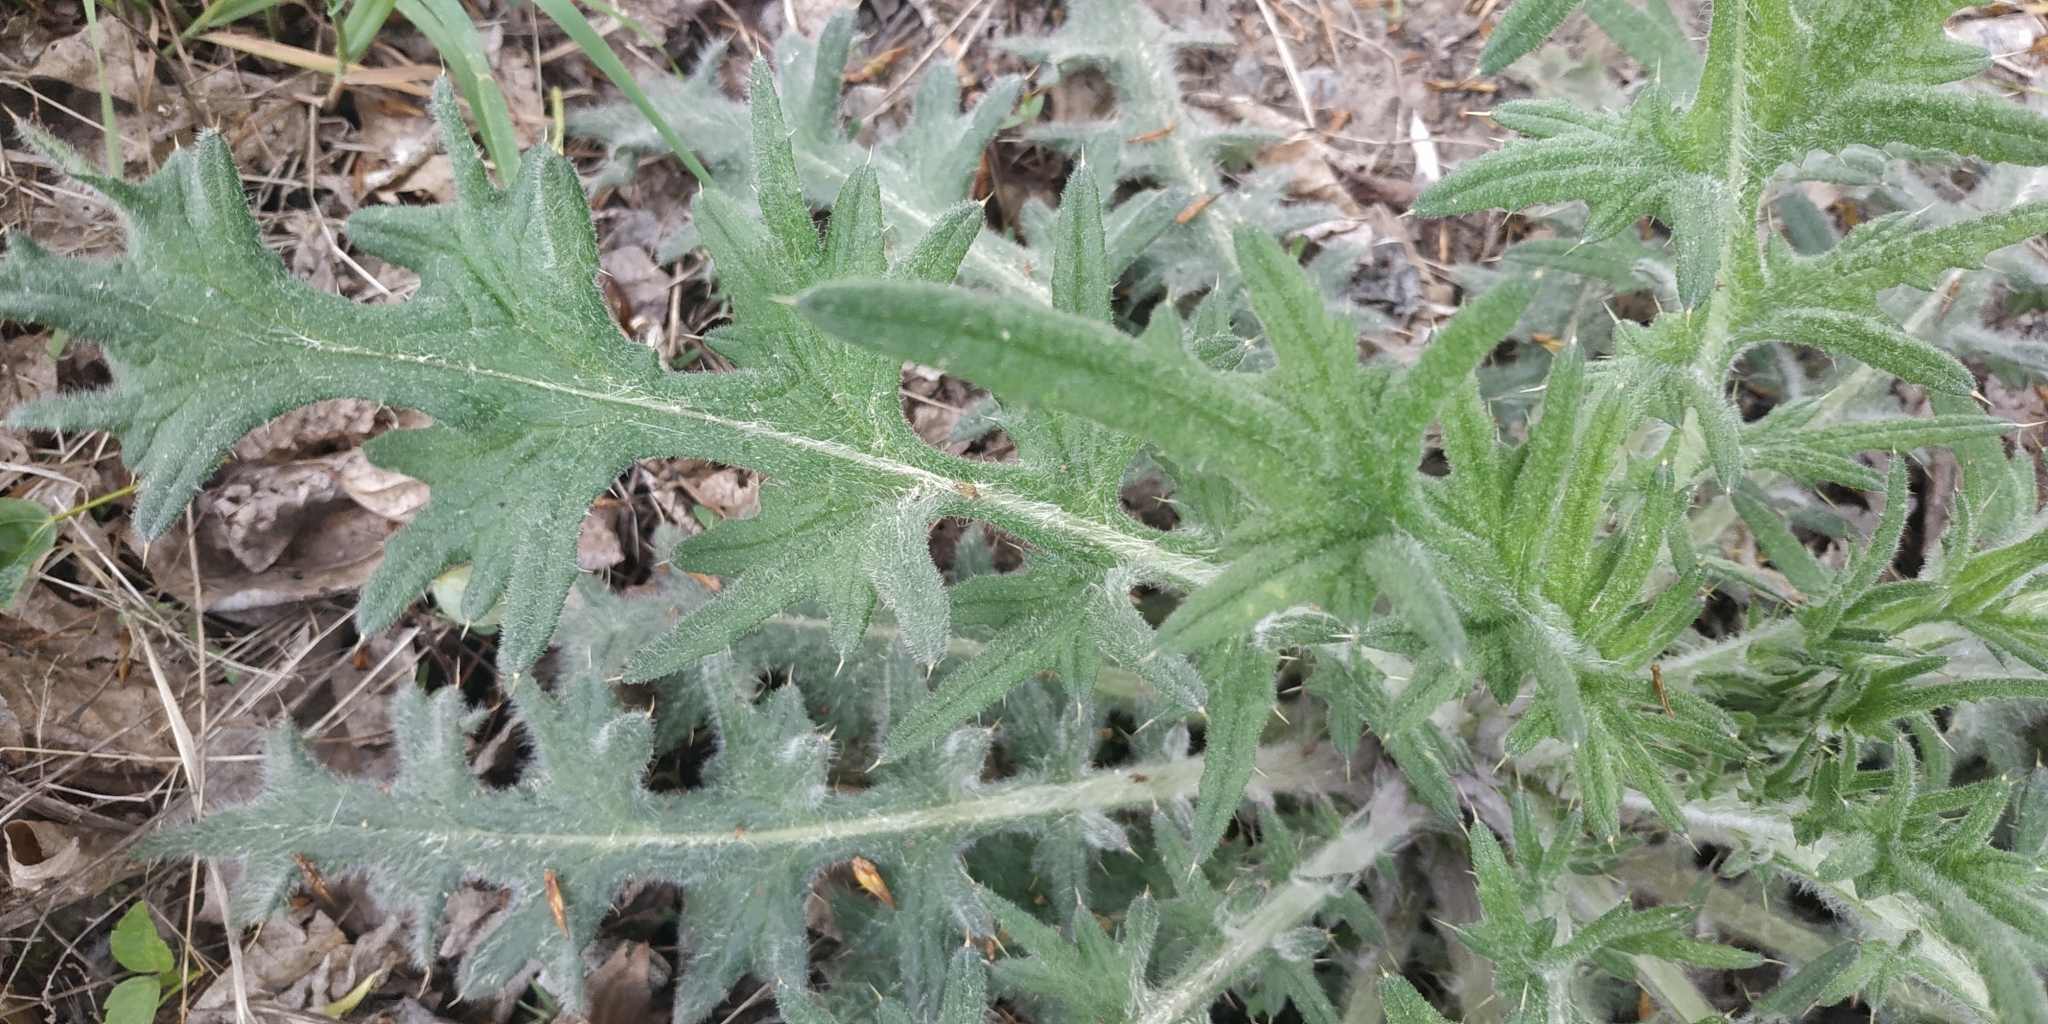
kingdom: Plantae
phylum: Tracheophyta
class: Magnoliopsida
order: Asterales
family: Asteraceae
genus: Cirsium
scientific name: Cirsium vulgare
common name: Bull thistle
